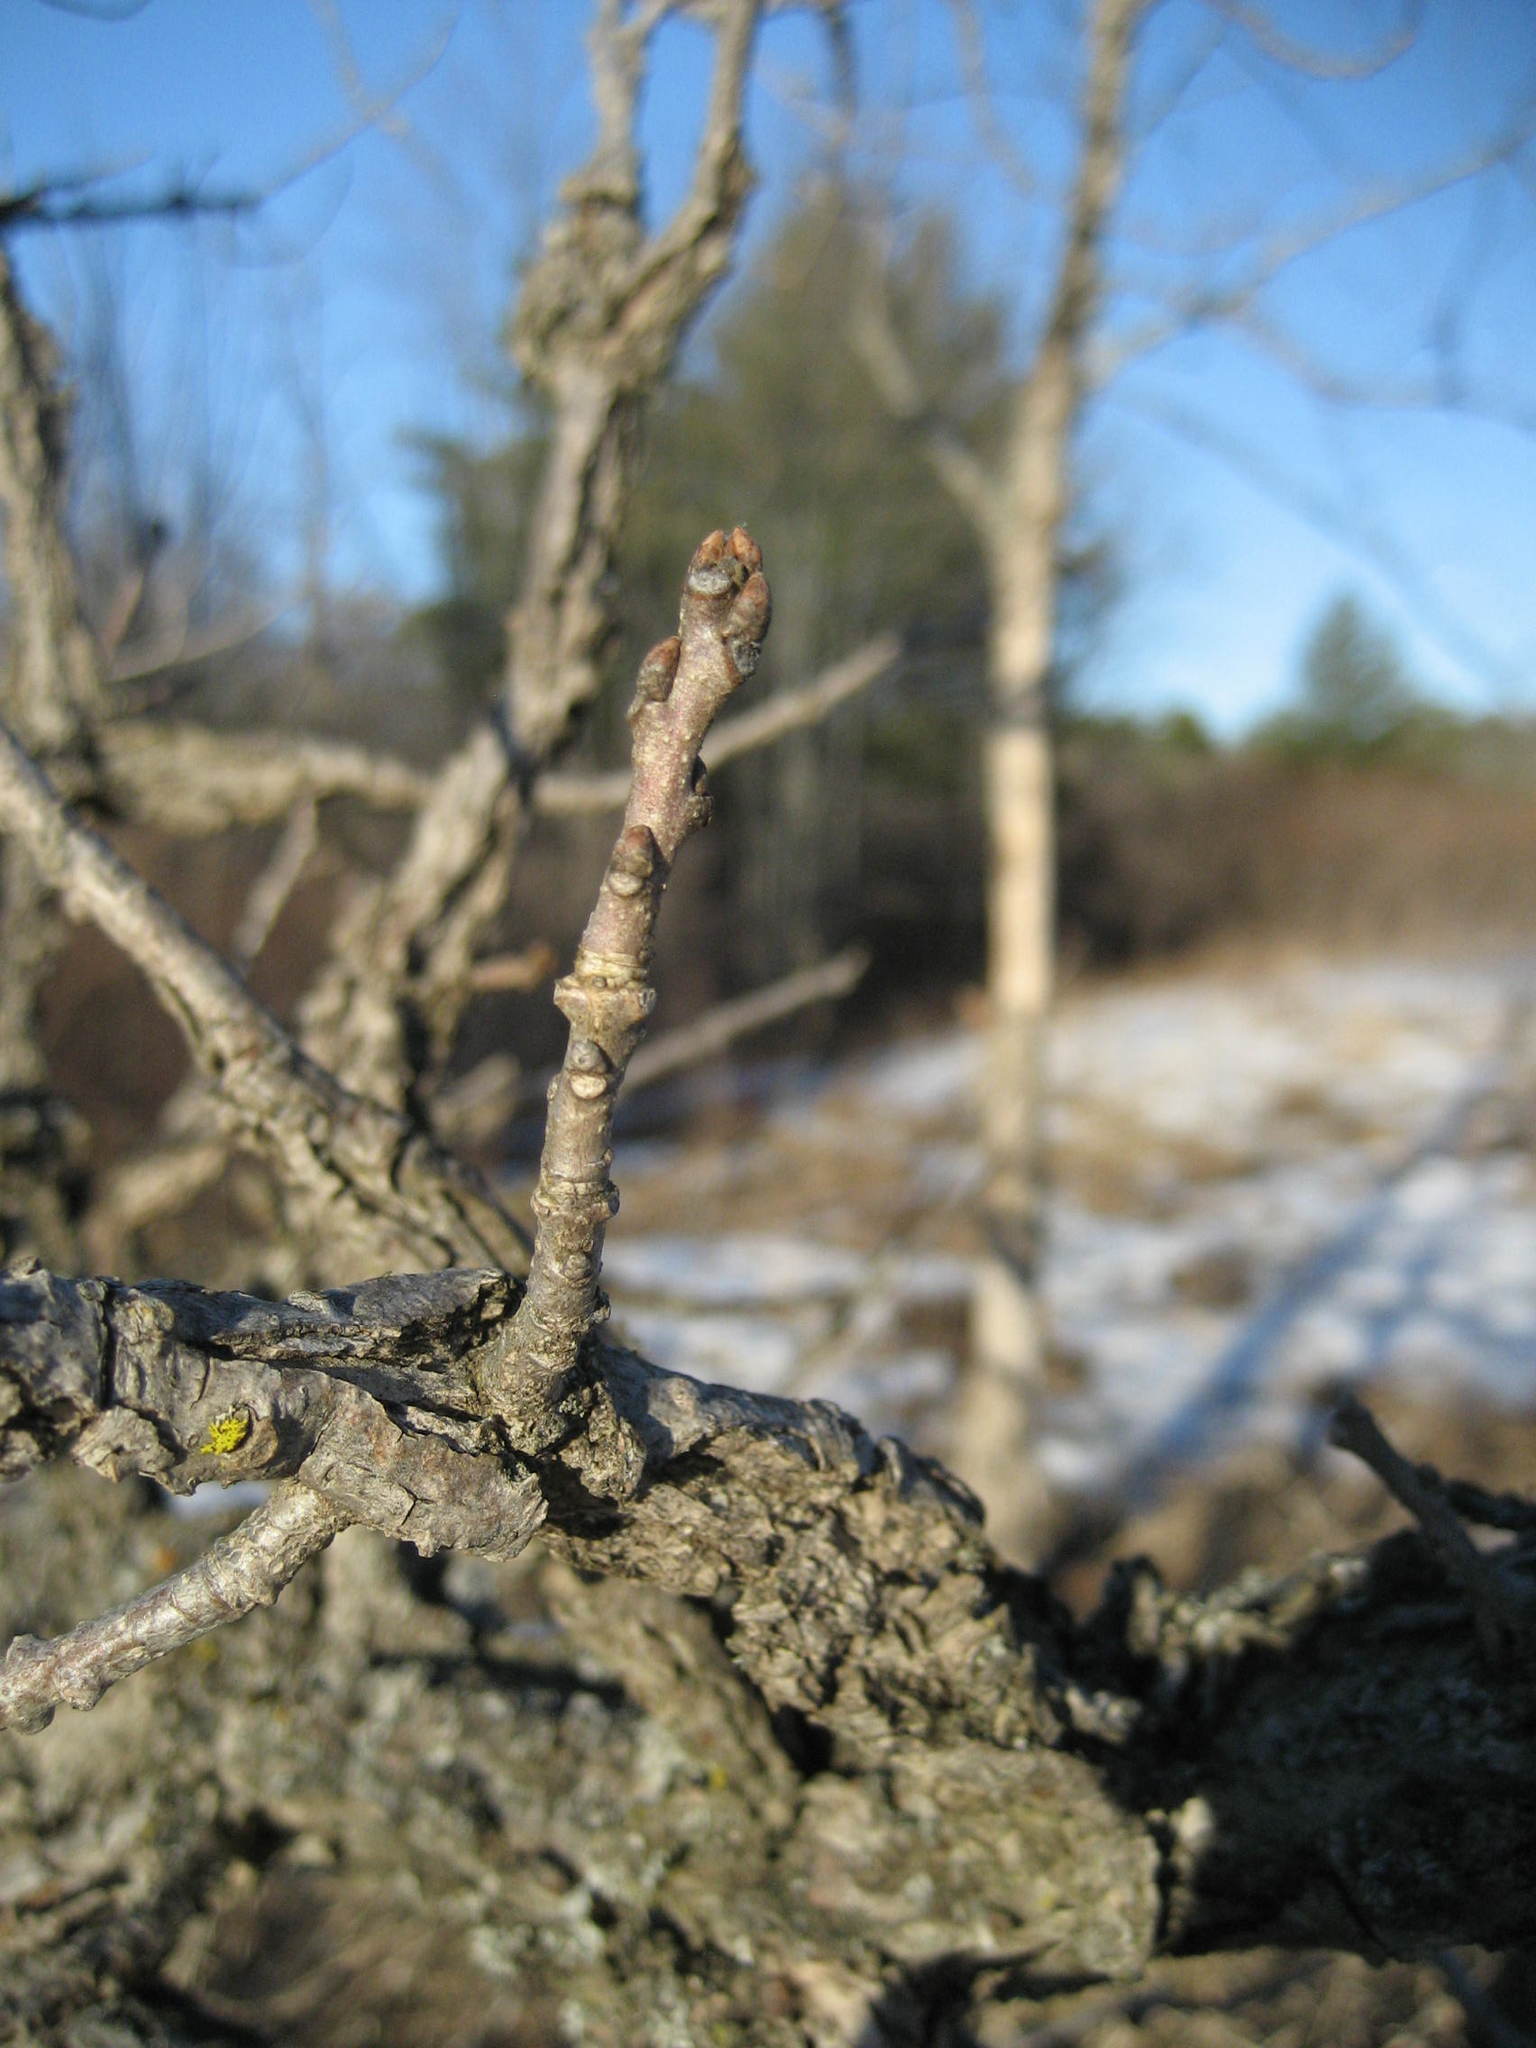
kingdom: Plantae
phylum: Tracheophyta
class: Magnoliopsida
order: Fagales
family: Fagaceae
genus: Quercus
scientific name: Quercus macrocarpa
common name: Bur oak
